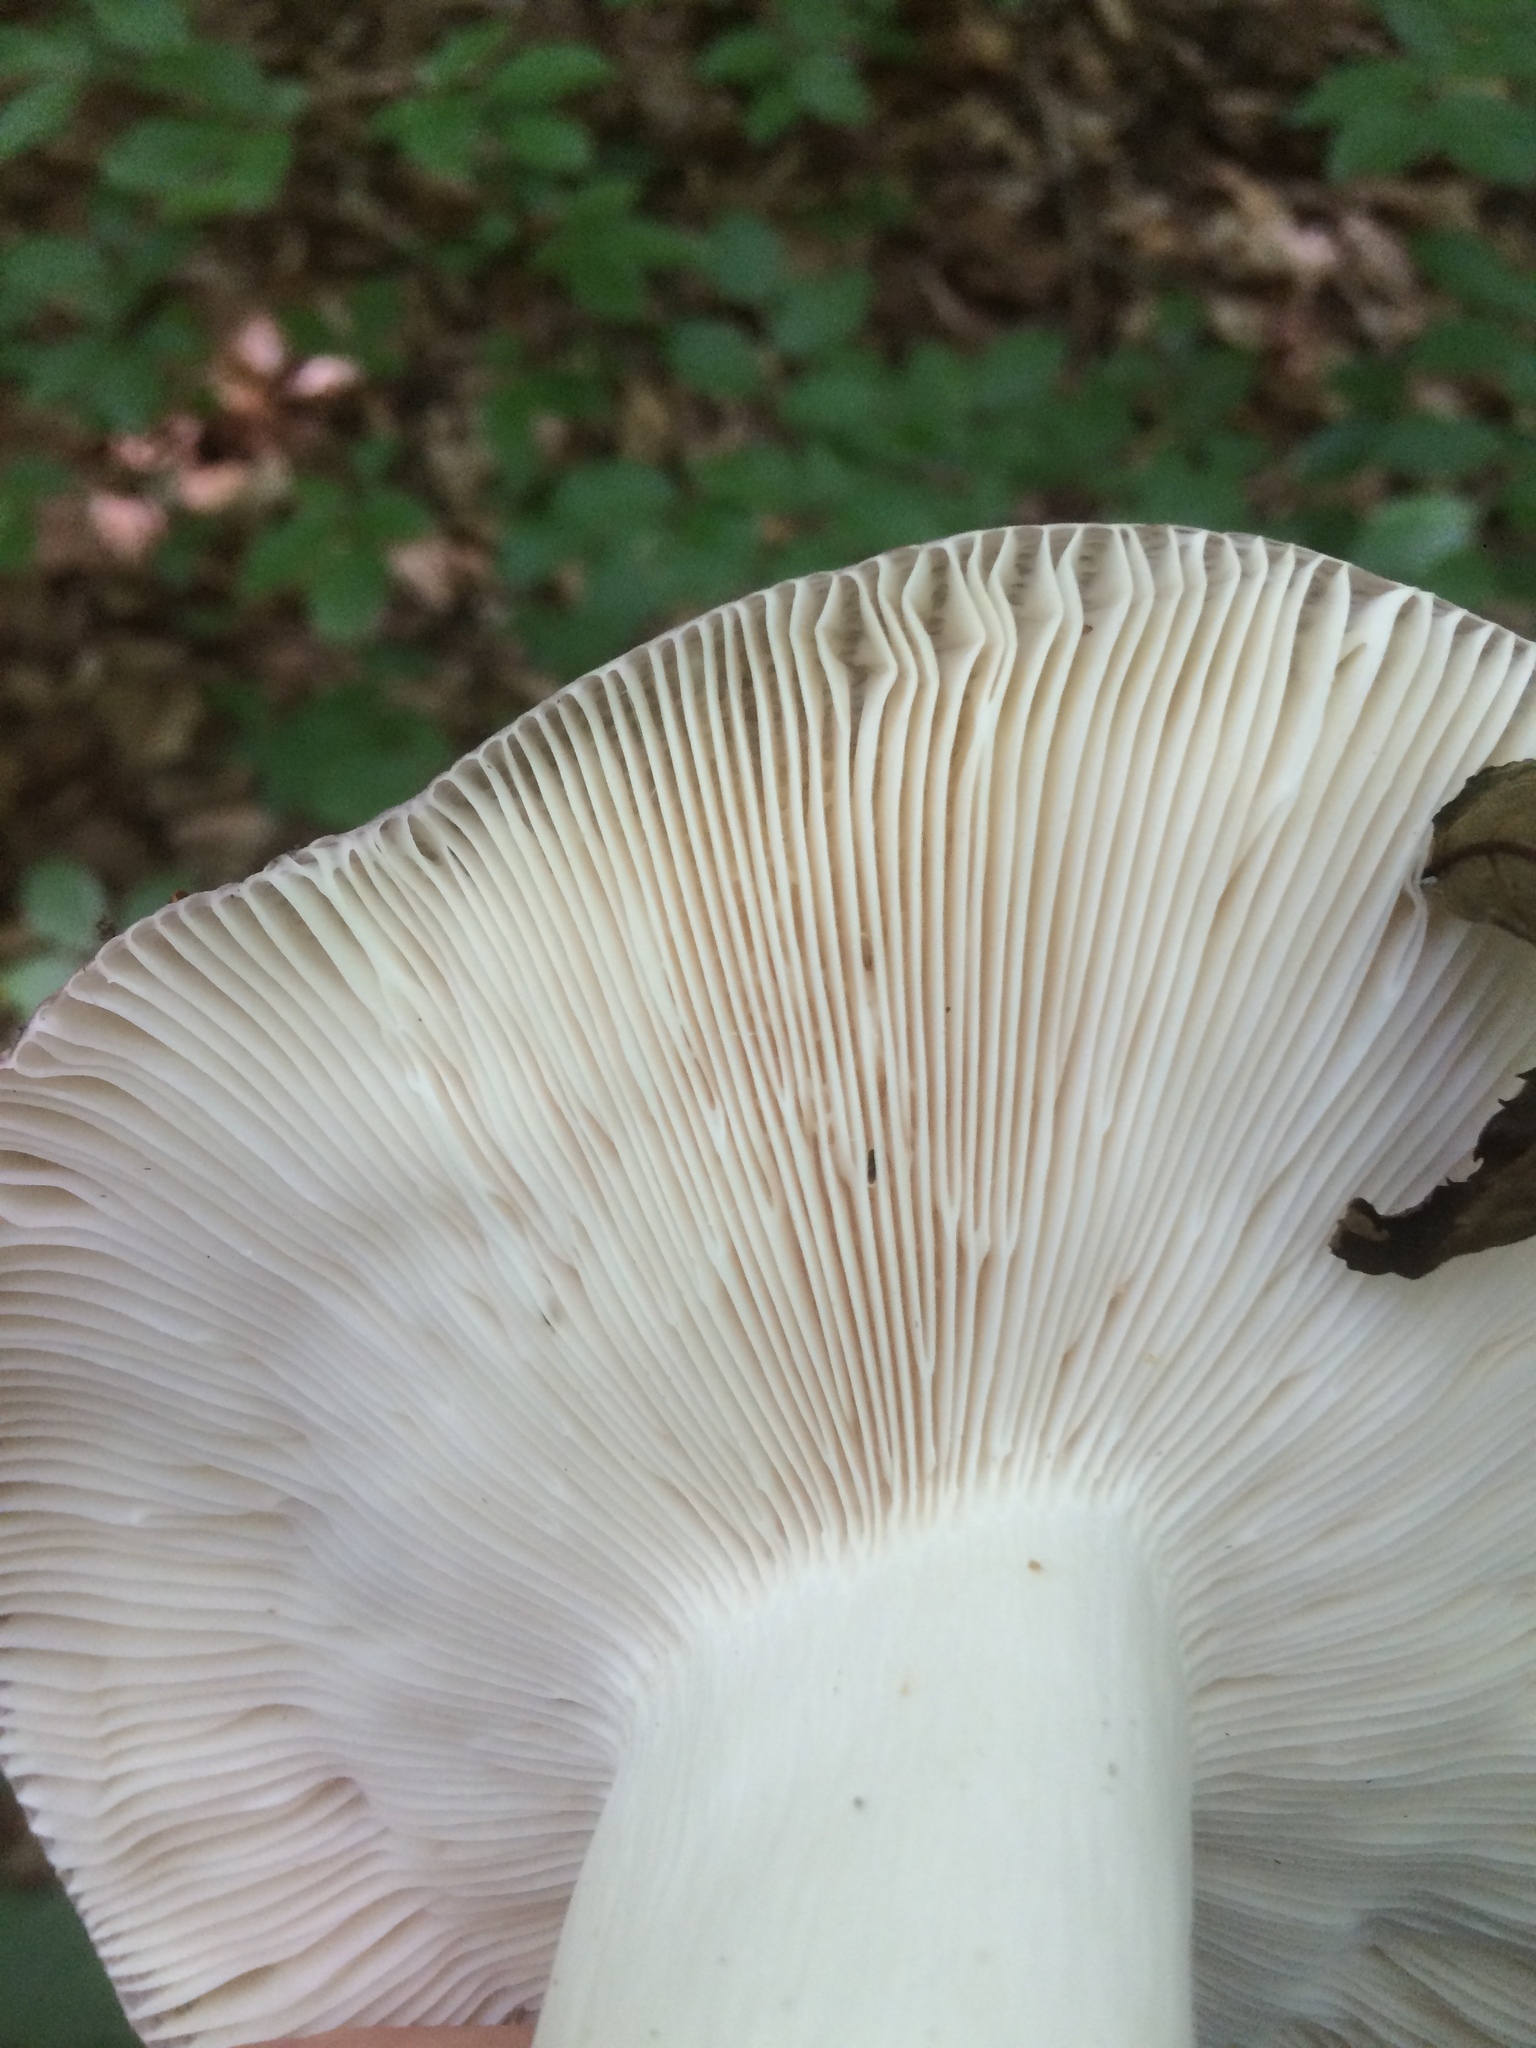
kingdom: Fungi
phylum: Basidiomycota
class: Agaricomycetes
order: Russulales
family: Russulaceae
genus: Russula
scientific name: Russula cyanoxantha
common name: Charcoal burner
